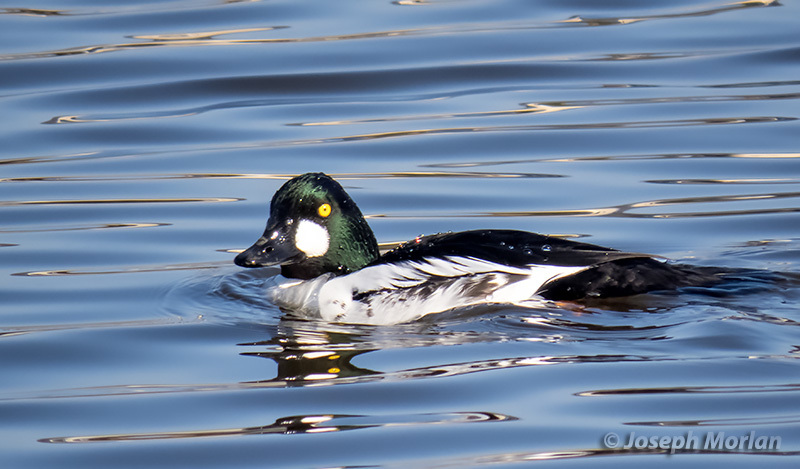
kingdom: Animalia
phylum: Chordata
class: Aves
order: Anseriformes
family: Anatidae
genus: Bucephala
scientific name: Bucephala clangula
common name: Common goldeneye
